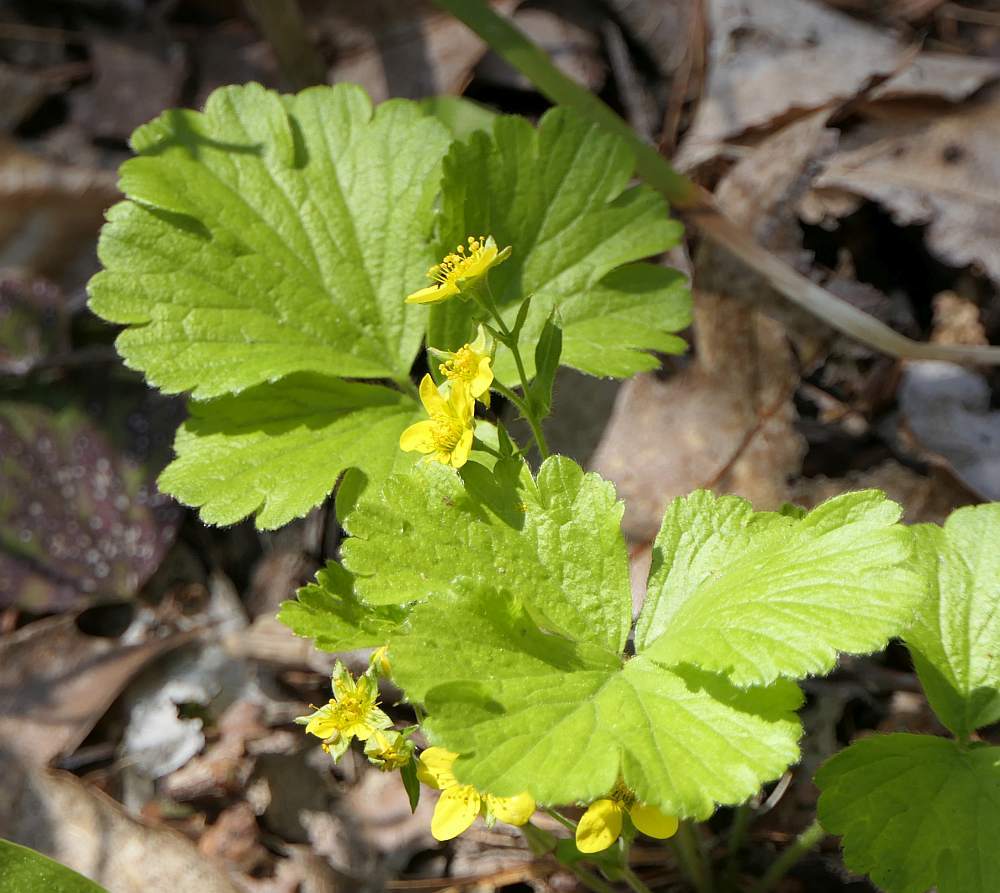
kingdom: Plantae
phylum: Tracheophyta
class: Magnoliopsida
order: Rosales
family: Rosaceae
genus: Geum
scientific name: Geum fragarioides
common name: Appalachian barren strawberry
